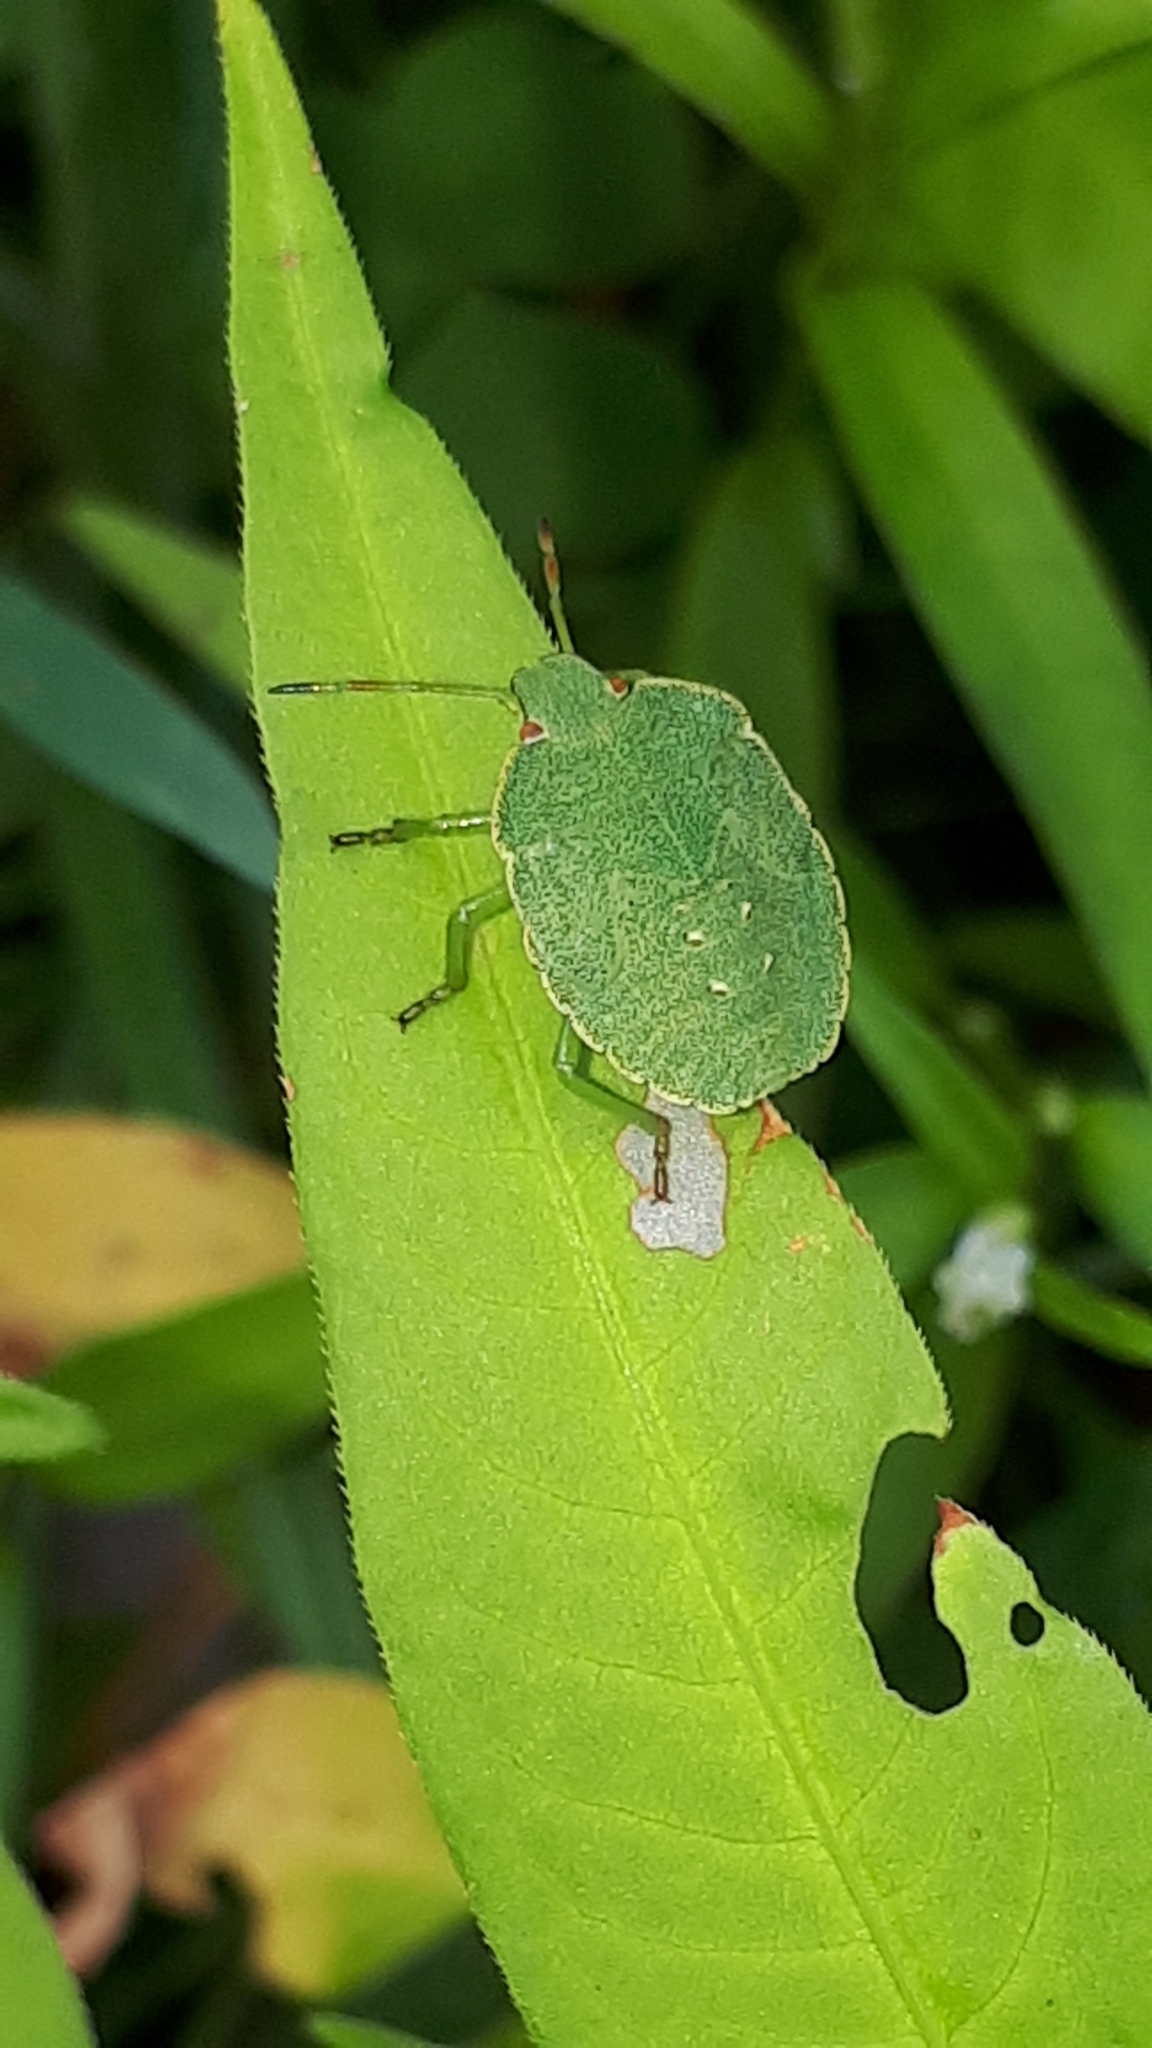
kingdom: Animalia
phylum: Arthropoda
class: Insecta
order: Hemiptera
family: Pentatomidae
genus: Palomena
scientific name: Palomena prasina
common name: Green shieldbug
